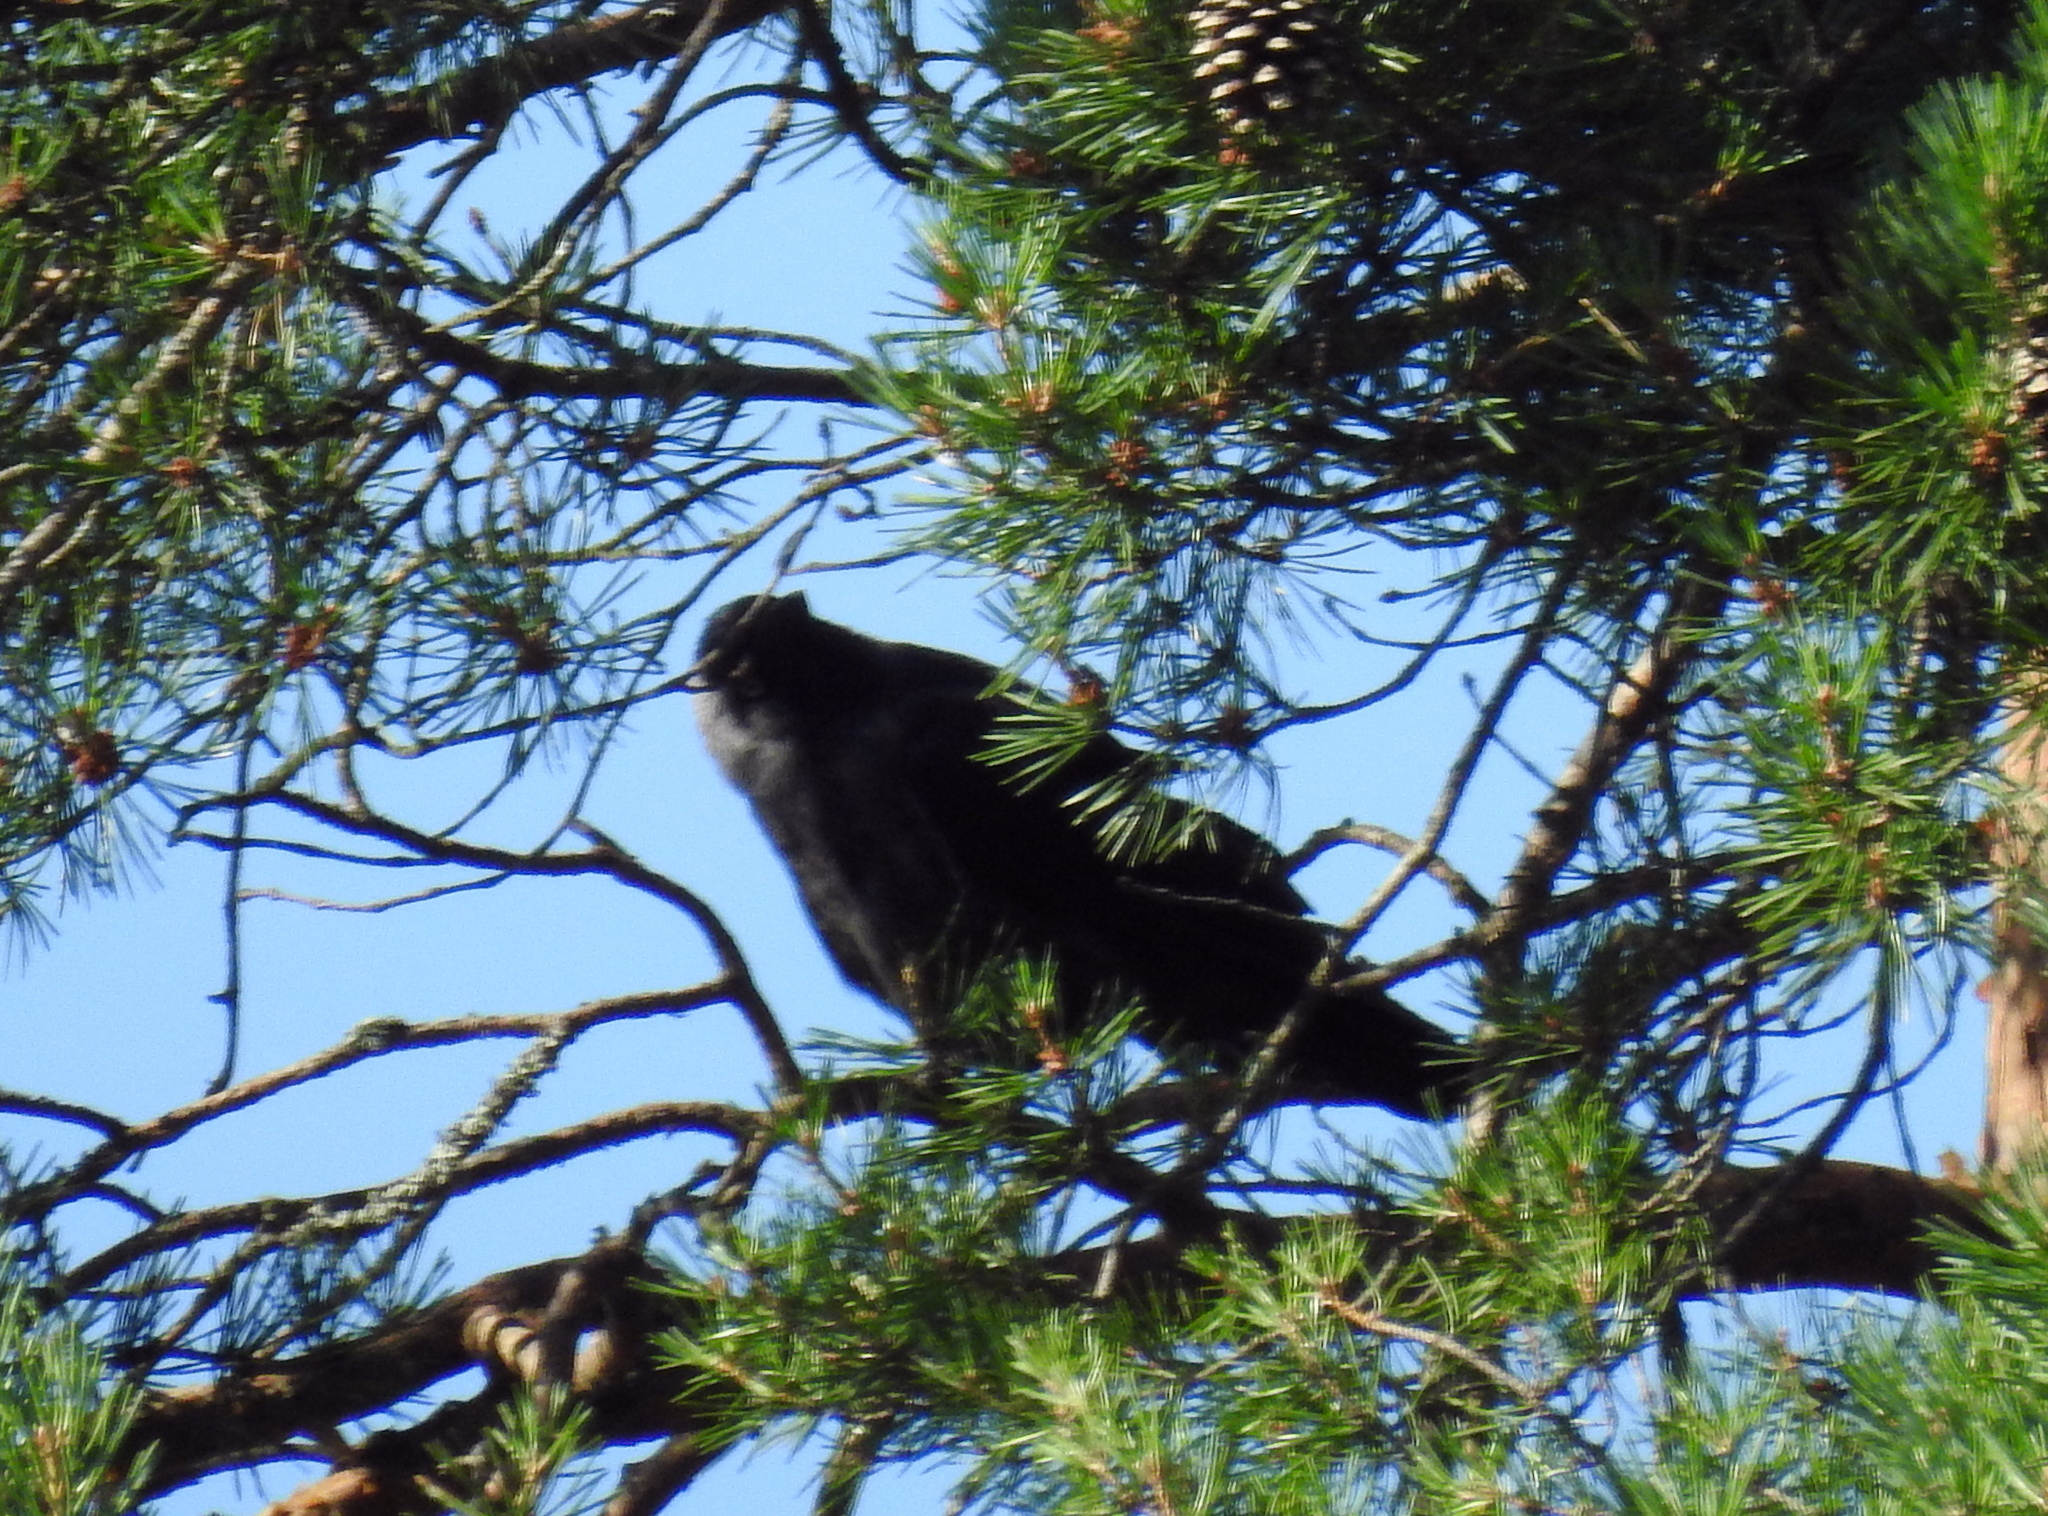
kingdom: Animalia
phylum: Chordata
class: Aves
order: Passeriformes
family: Corvidae
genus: Coloeus
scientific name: Coloeus monedula
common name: Western jackdaw
